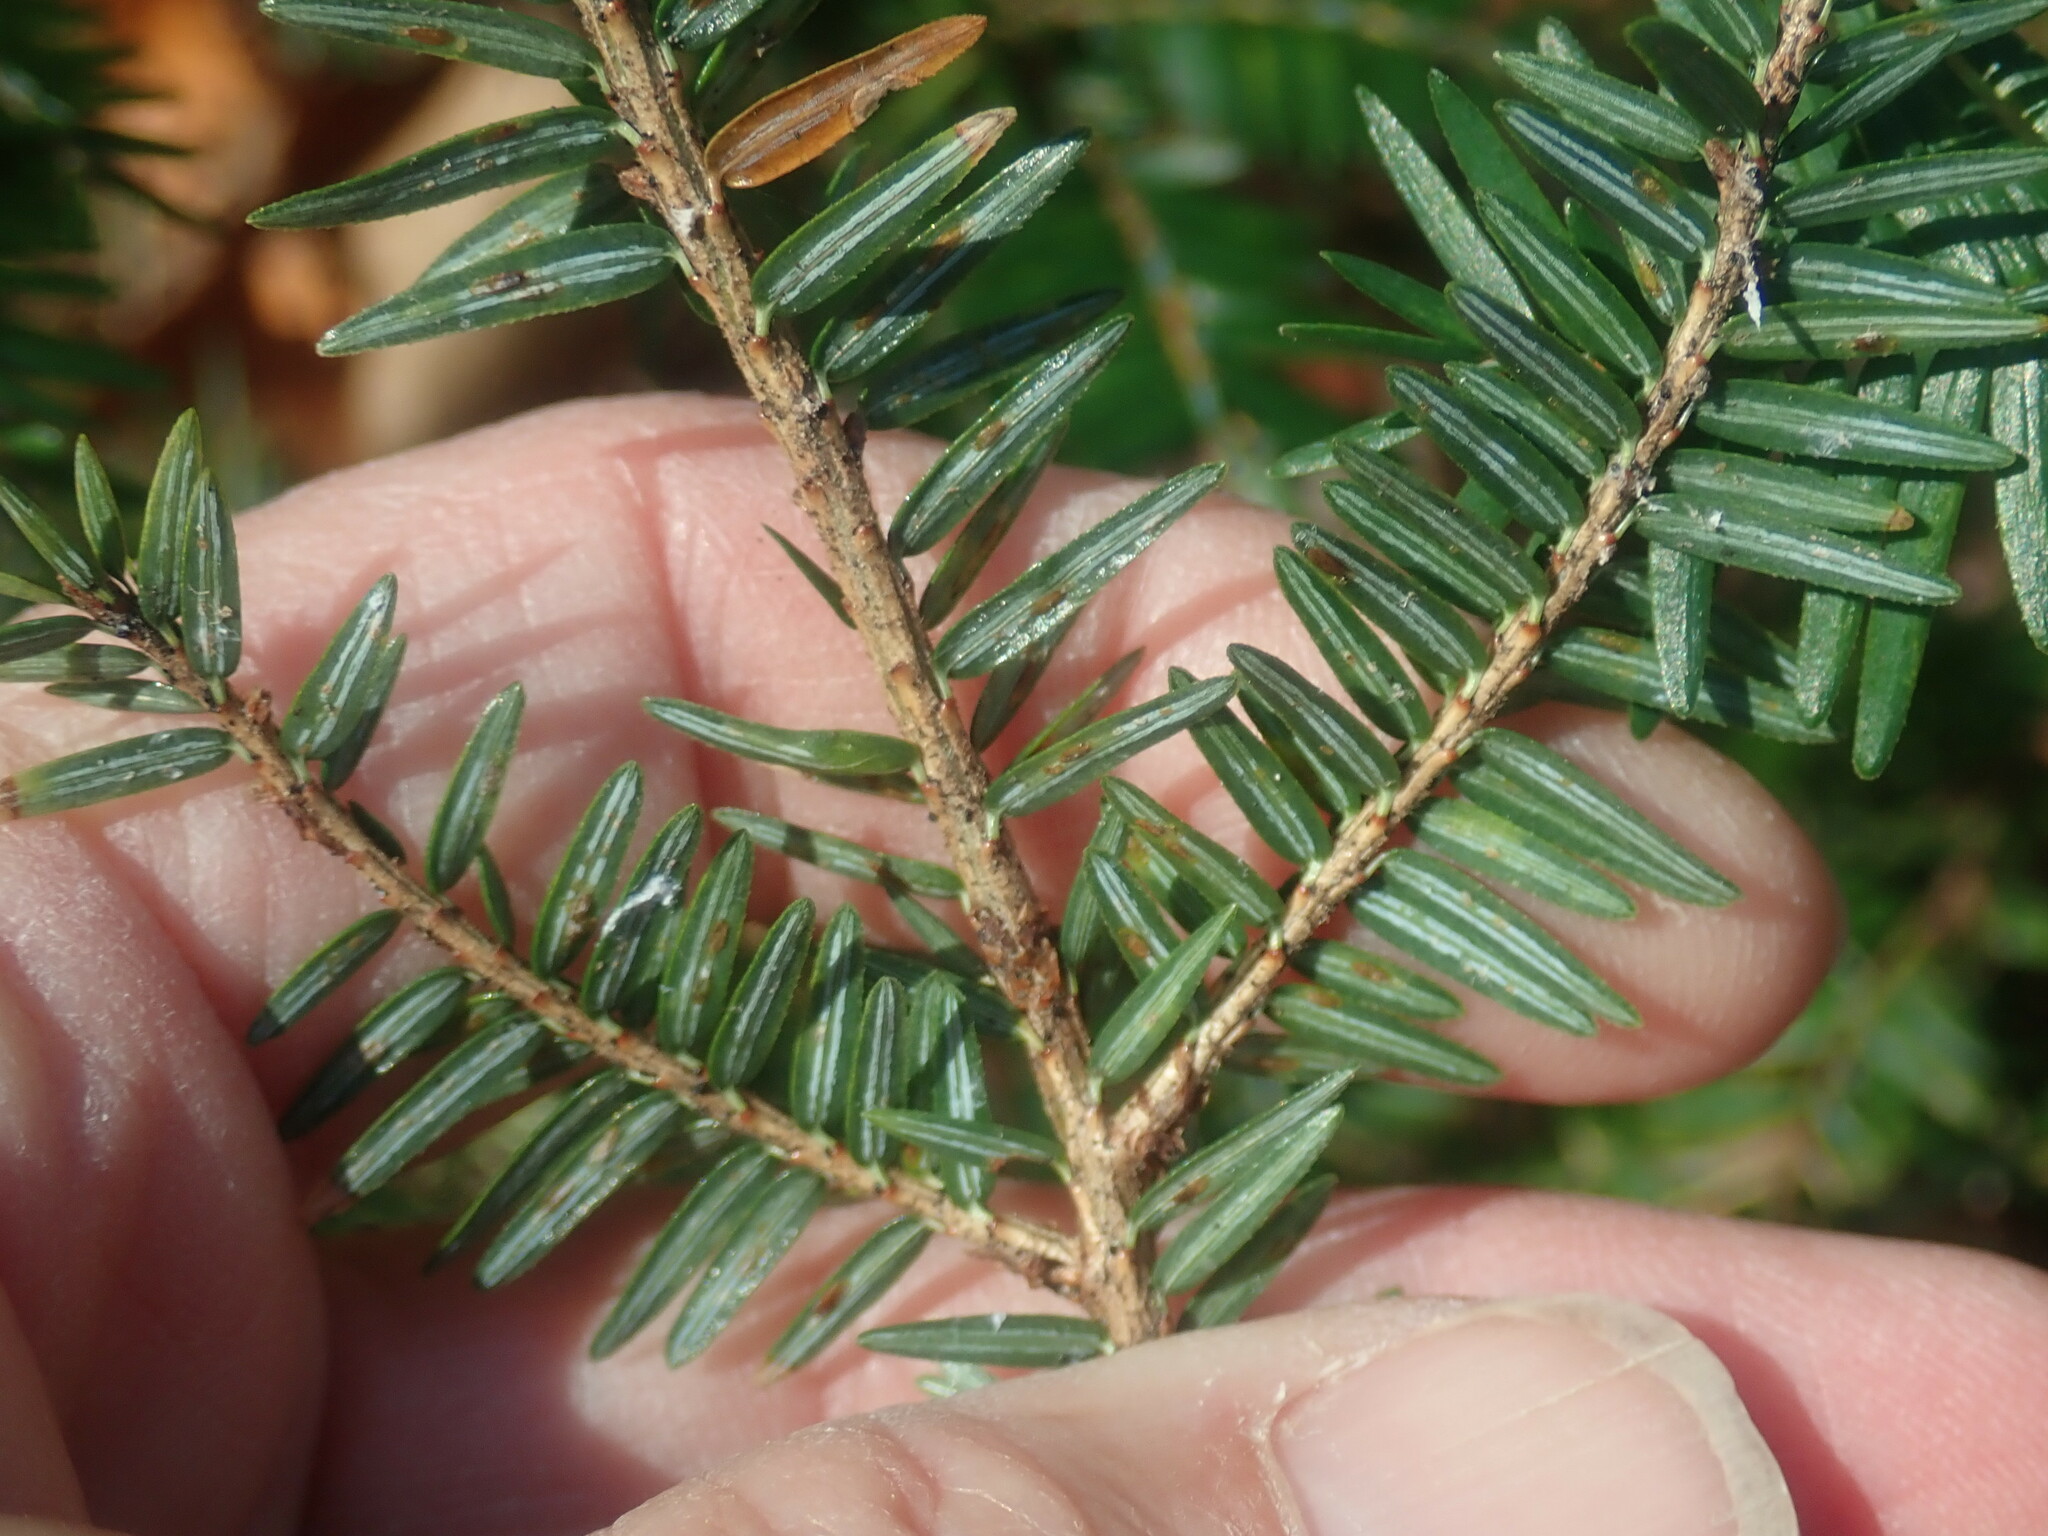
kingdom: Plantae
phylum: Tracheophyta
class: Pinopsida
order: Pinales
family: Pinaceae
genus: Tsuga
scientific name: Tsuga canadensis
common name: Eastern hemlock
